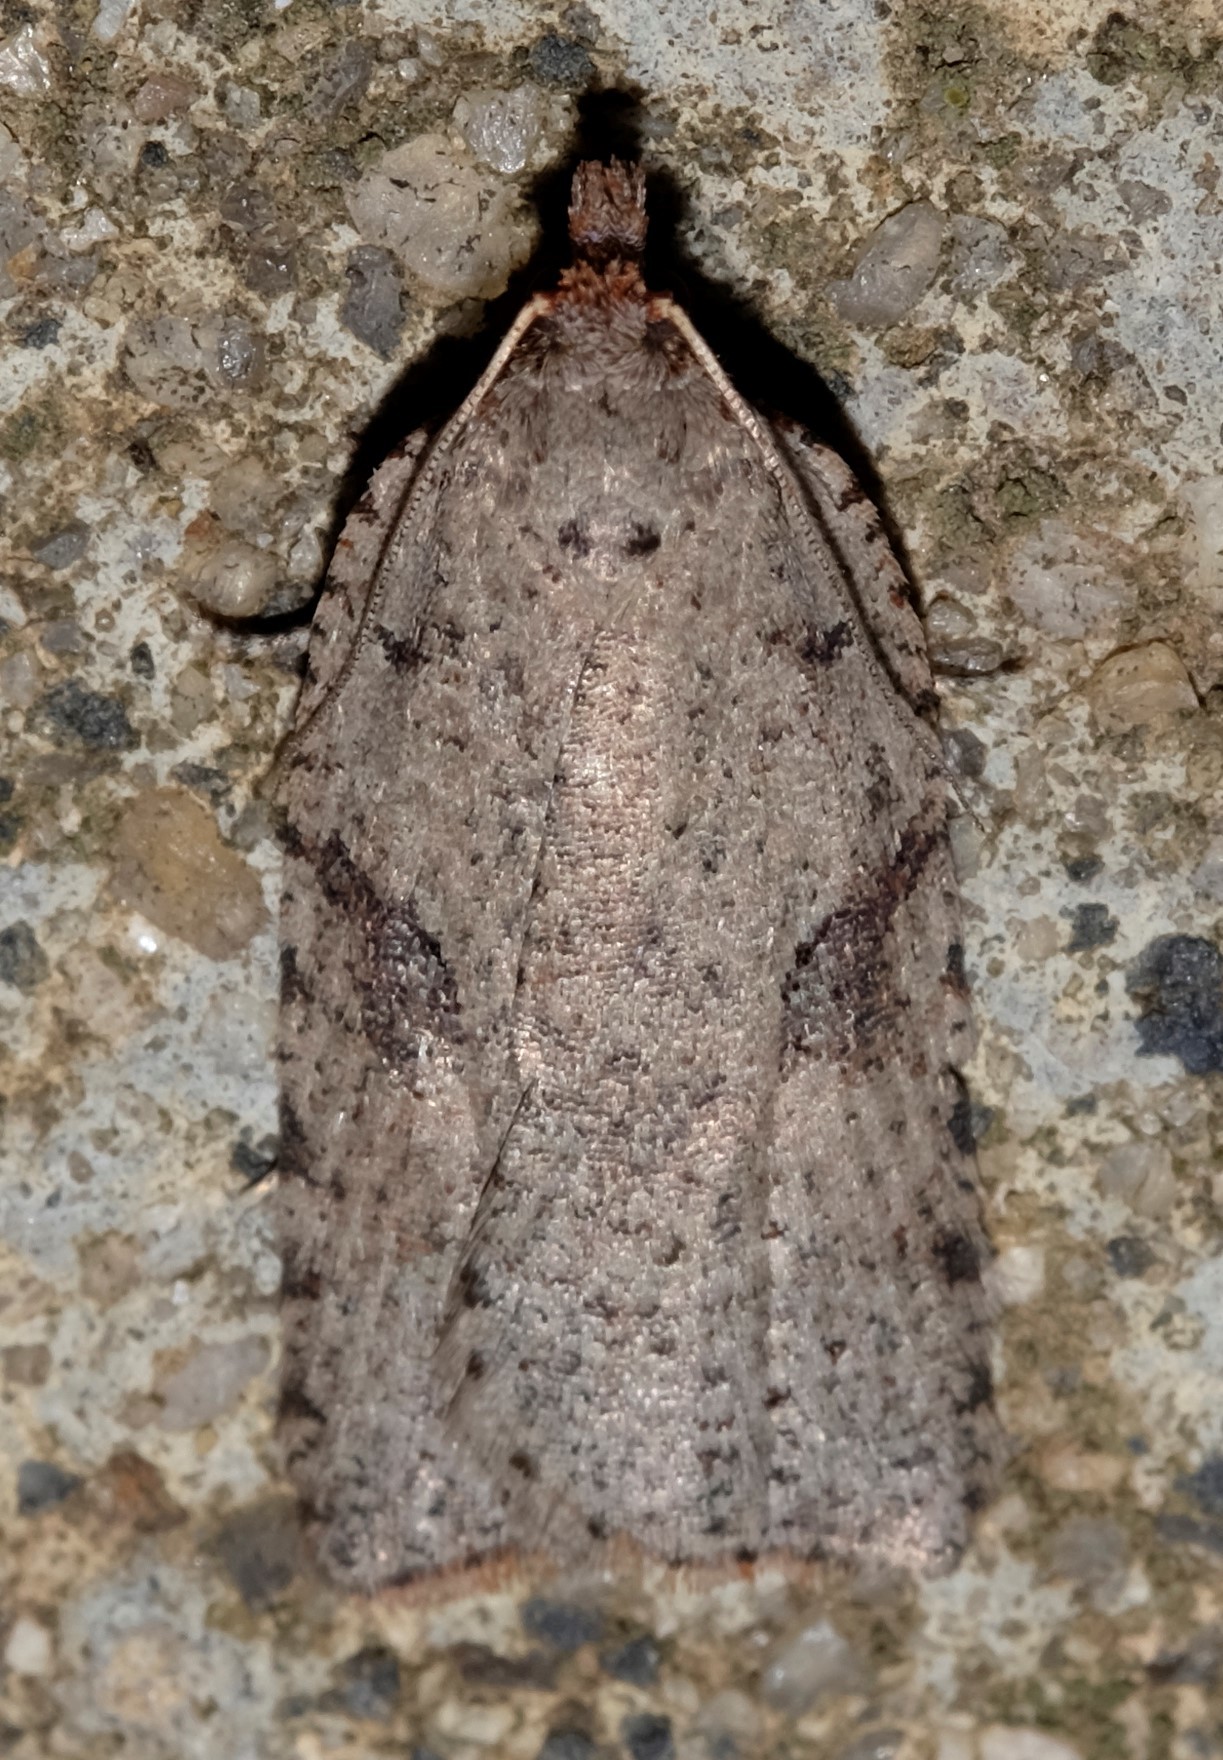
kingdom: Animalia
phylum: Arthropoda
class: Insecta
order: Lepidoptera
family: Tortricidae
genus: Meritastis
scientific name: Meritastis polygraphana
